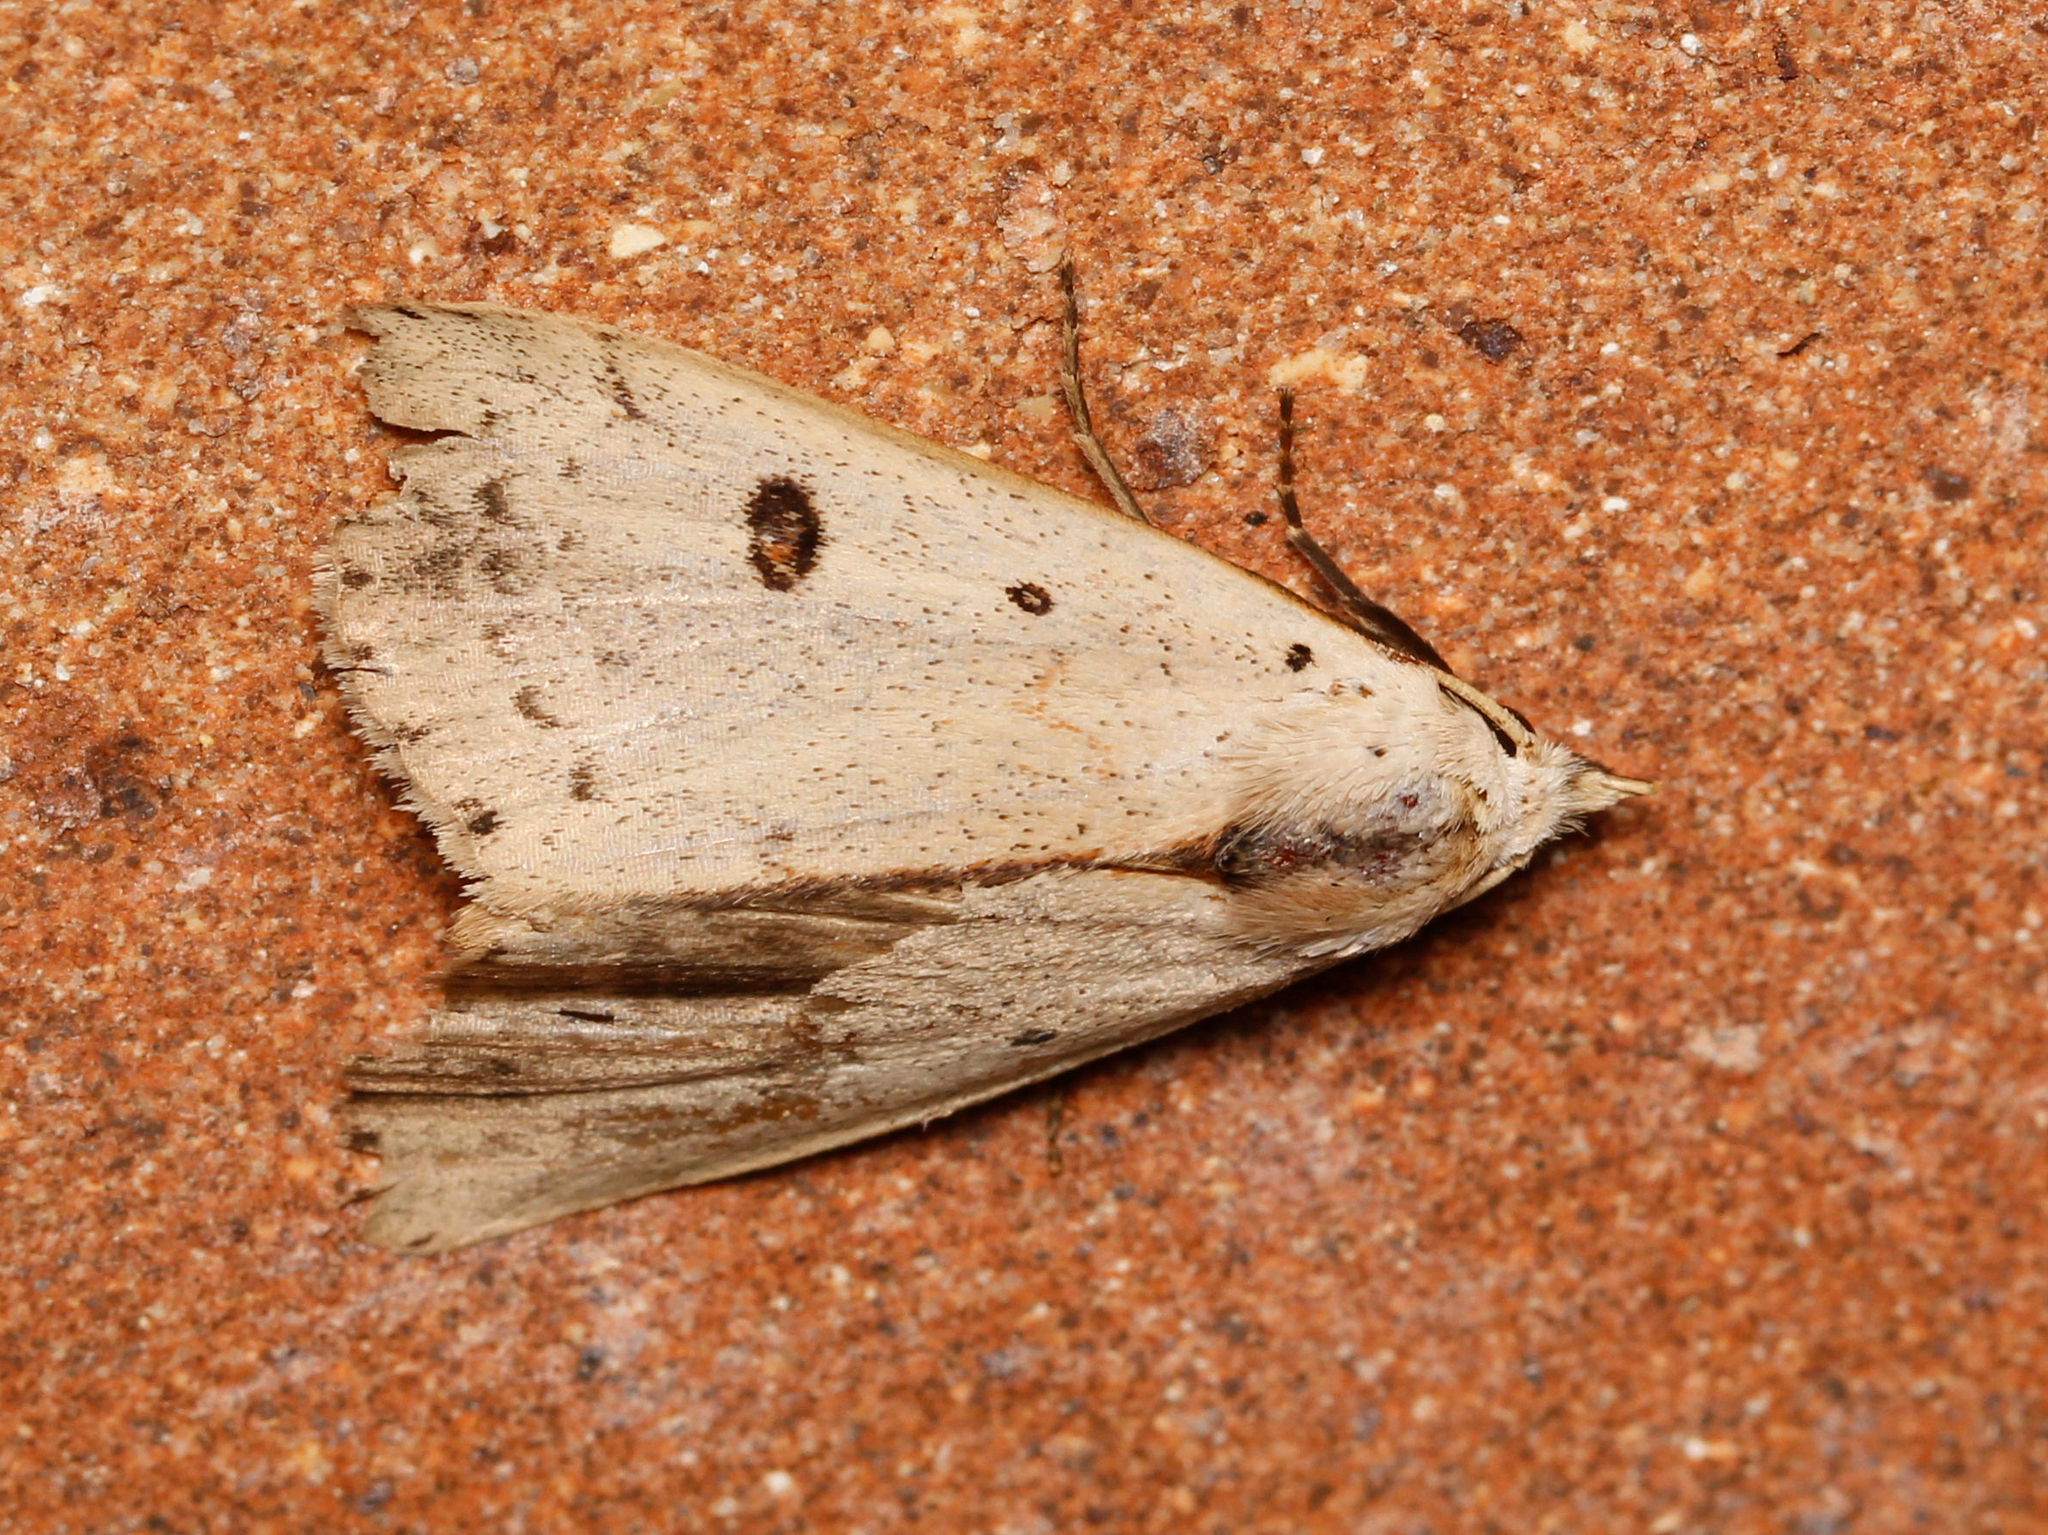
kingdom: Animalia
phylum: Arthropoda
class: Insecta
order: Lepidoptera
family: Erebidae
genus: Scolecocampa
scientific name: Scolecocampa liburna
